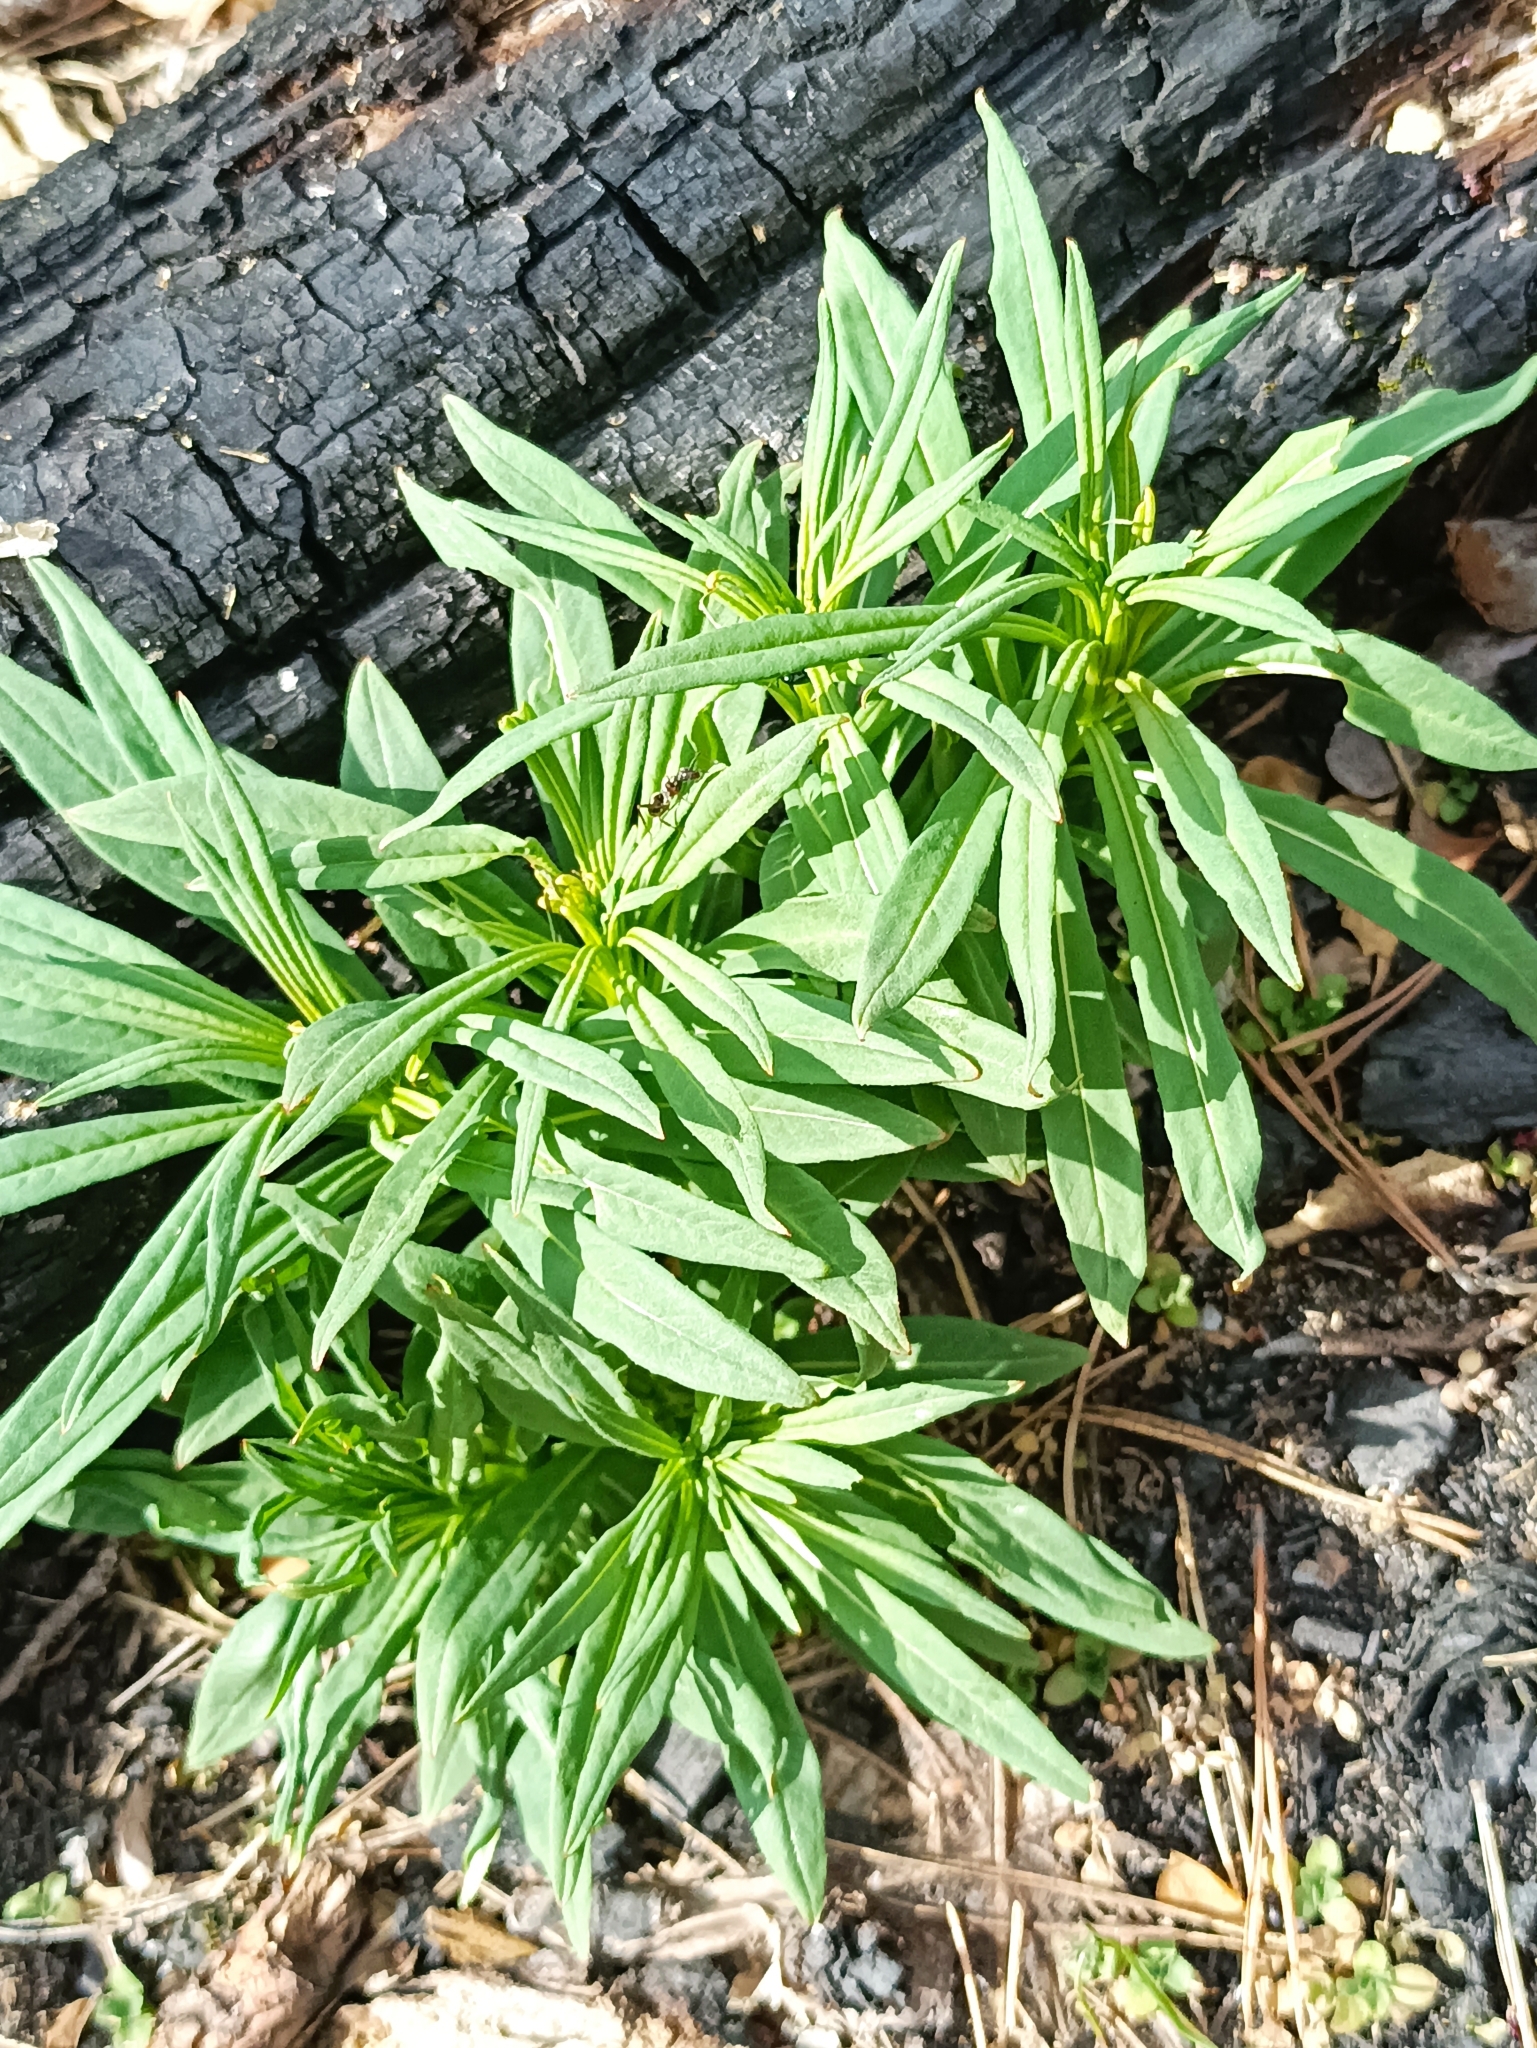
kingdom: Plantae
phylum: Tracheophyta
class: Magnoliopsida
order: Myrtales
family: Onagraceae
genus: Chamaenerion
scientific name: Chamaenerion angustifolium
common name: Fireweed
